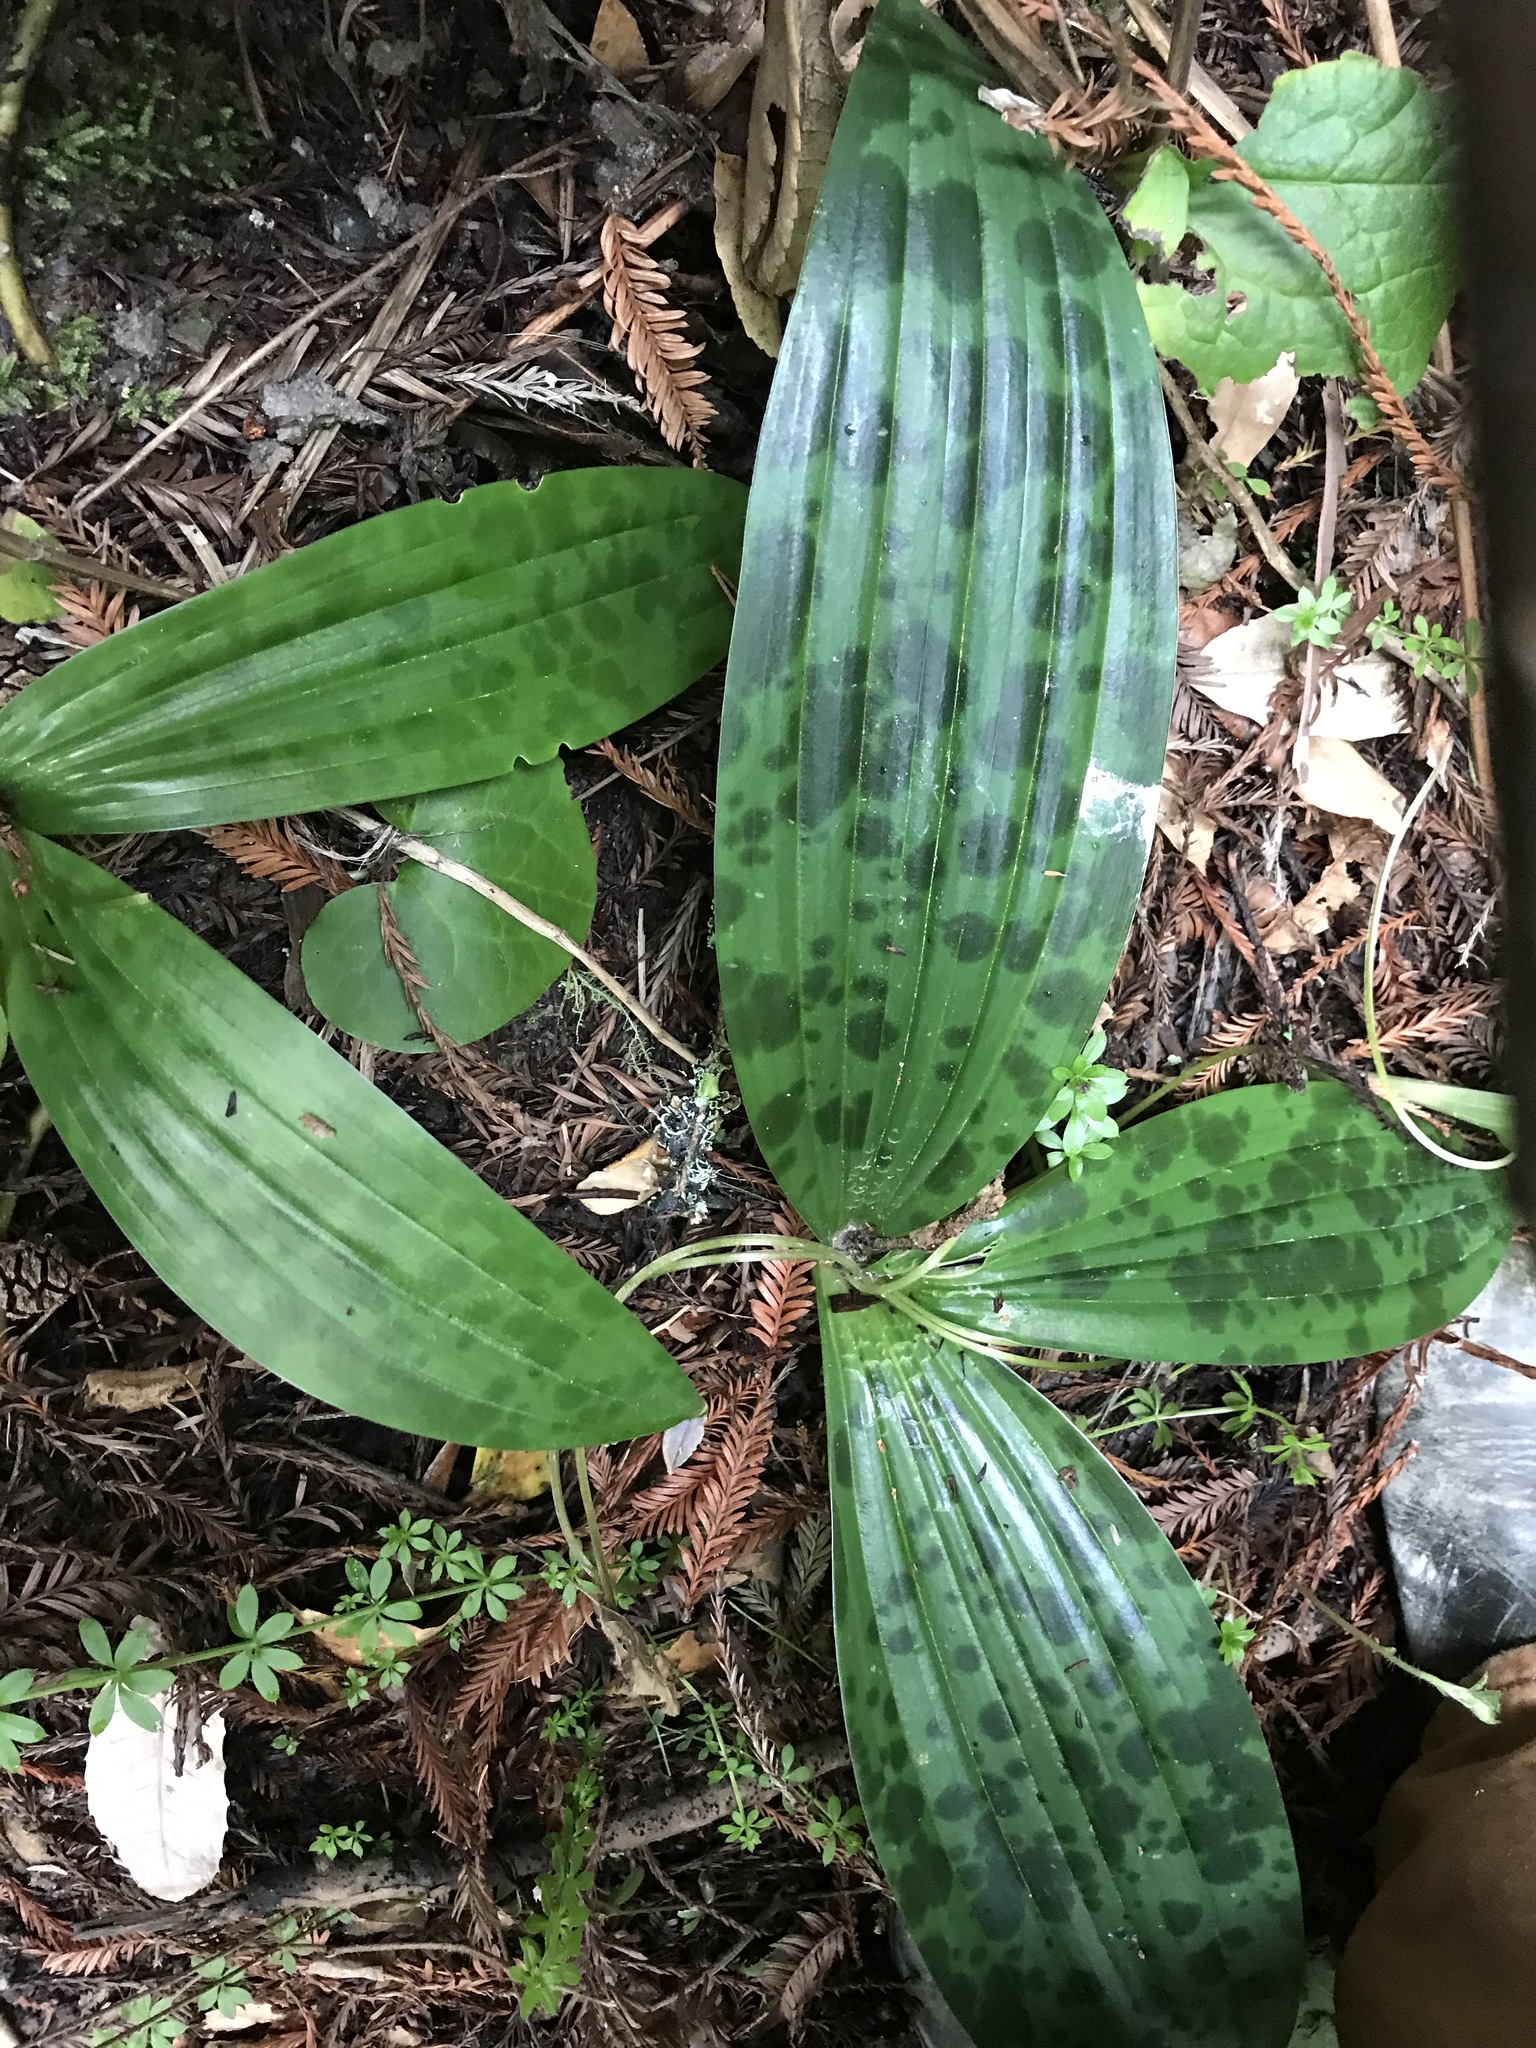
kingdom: Plantae
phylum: Tracheophyta
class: Liliopsida
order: Liliales
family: Liliaceae
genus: Scoliopus
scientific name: Scoliopus bigelovii
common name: Foetid adder's-tongue
